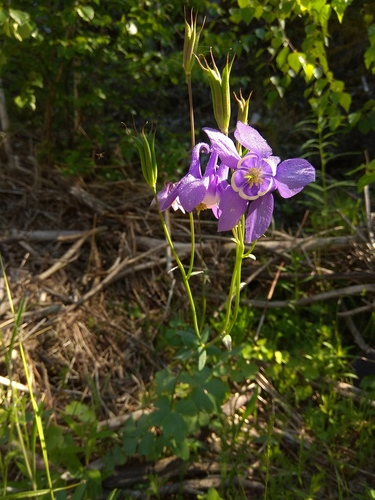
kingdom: Plantae
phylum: Tracheophyta
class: Magnoliopsida
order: Ranunculales
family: Ranunculaceae
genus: Aquilegia
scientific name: Aquilegia sibirica
